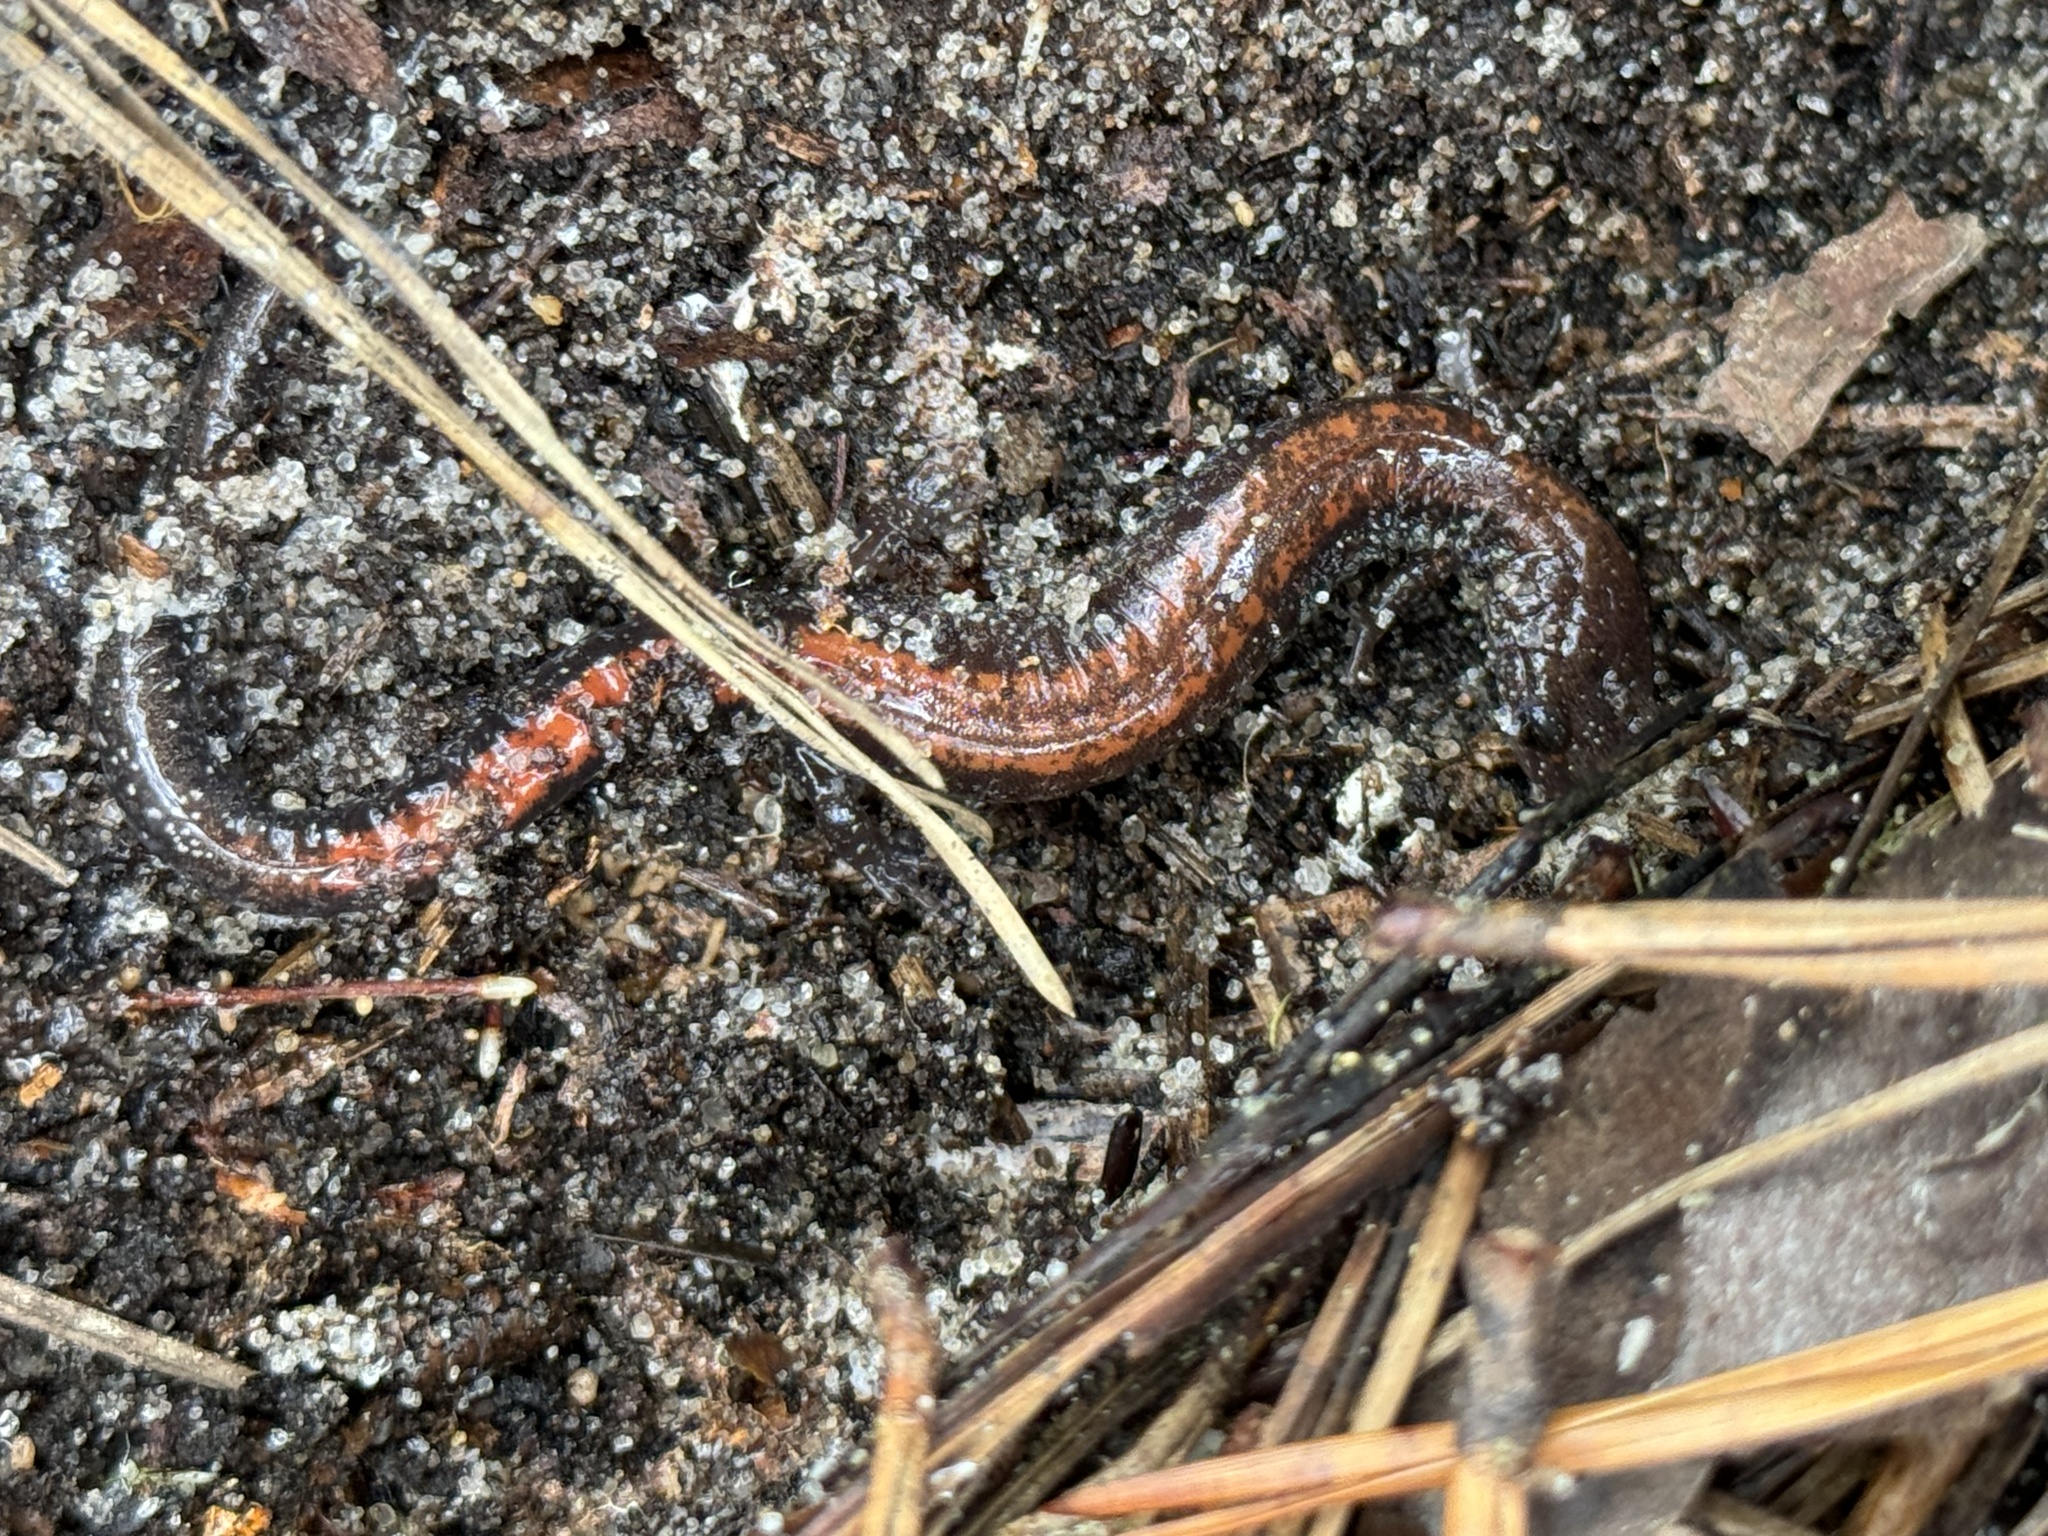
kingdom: Animalia
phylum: Chordata
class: Amphibia
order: Caudata
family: Plethodontidae
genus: Plethodon
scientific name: Plethodon cinereus
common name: Redback salamander
